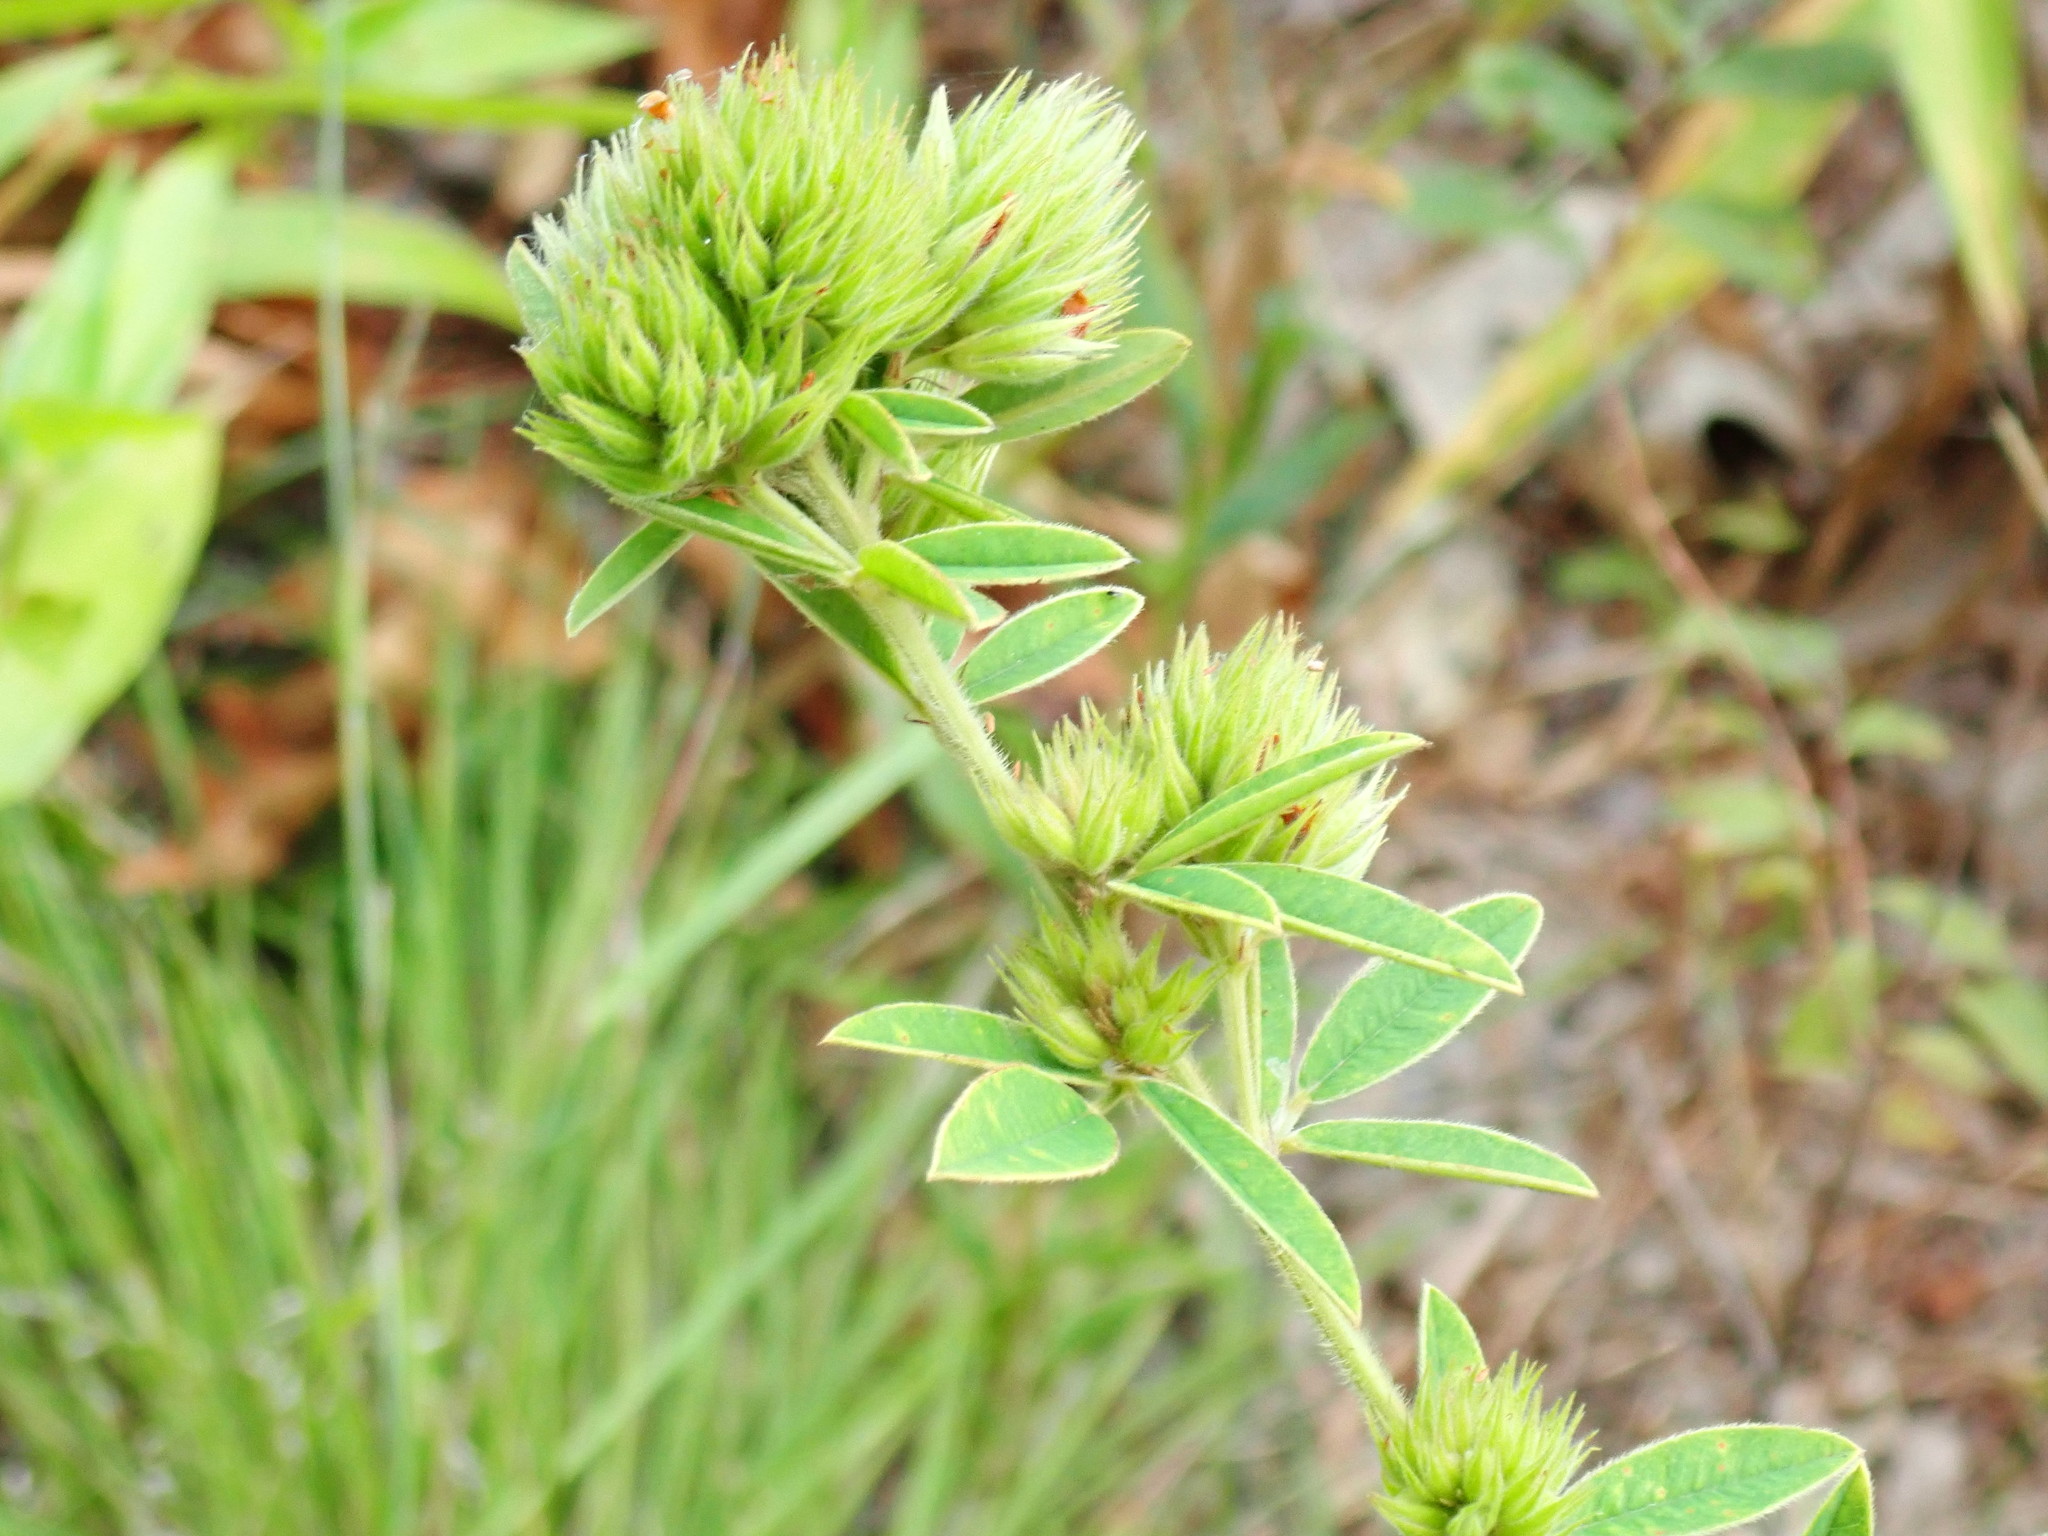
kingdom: Plantae
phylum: Tracheophyta
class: Magnoliopsida
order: Fabales
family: Fabaceae
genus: Lespedeza
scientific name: Lespedeza capitata
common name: Dusty clover
